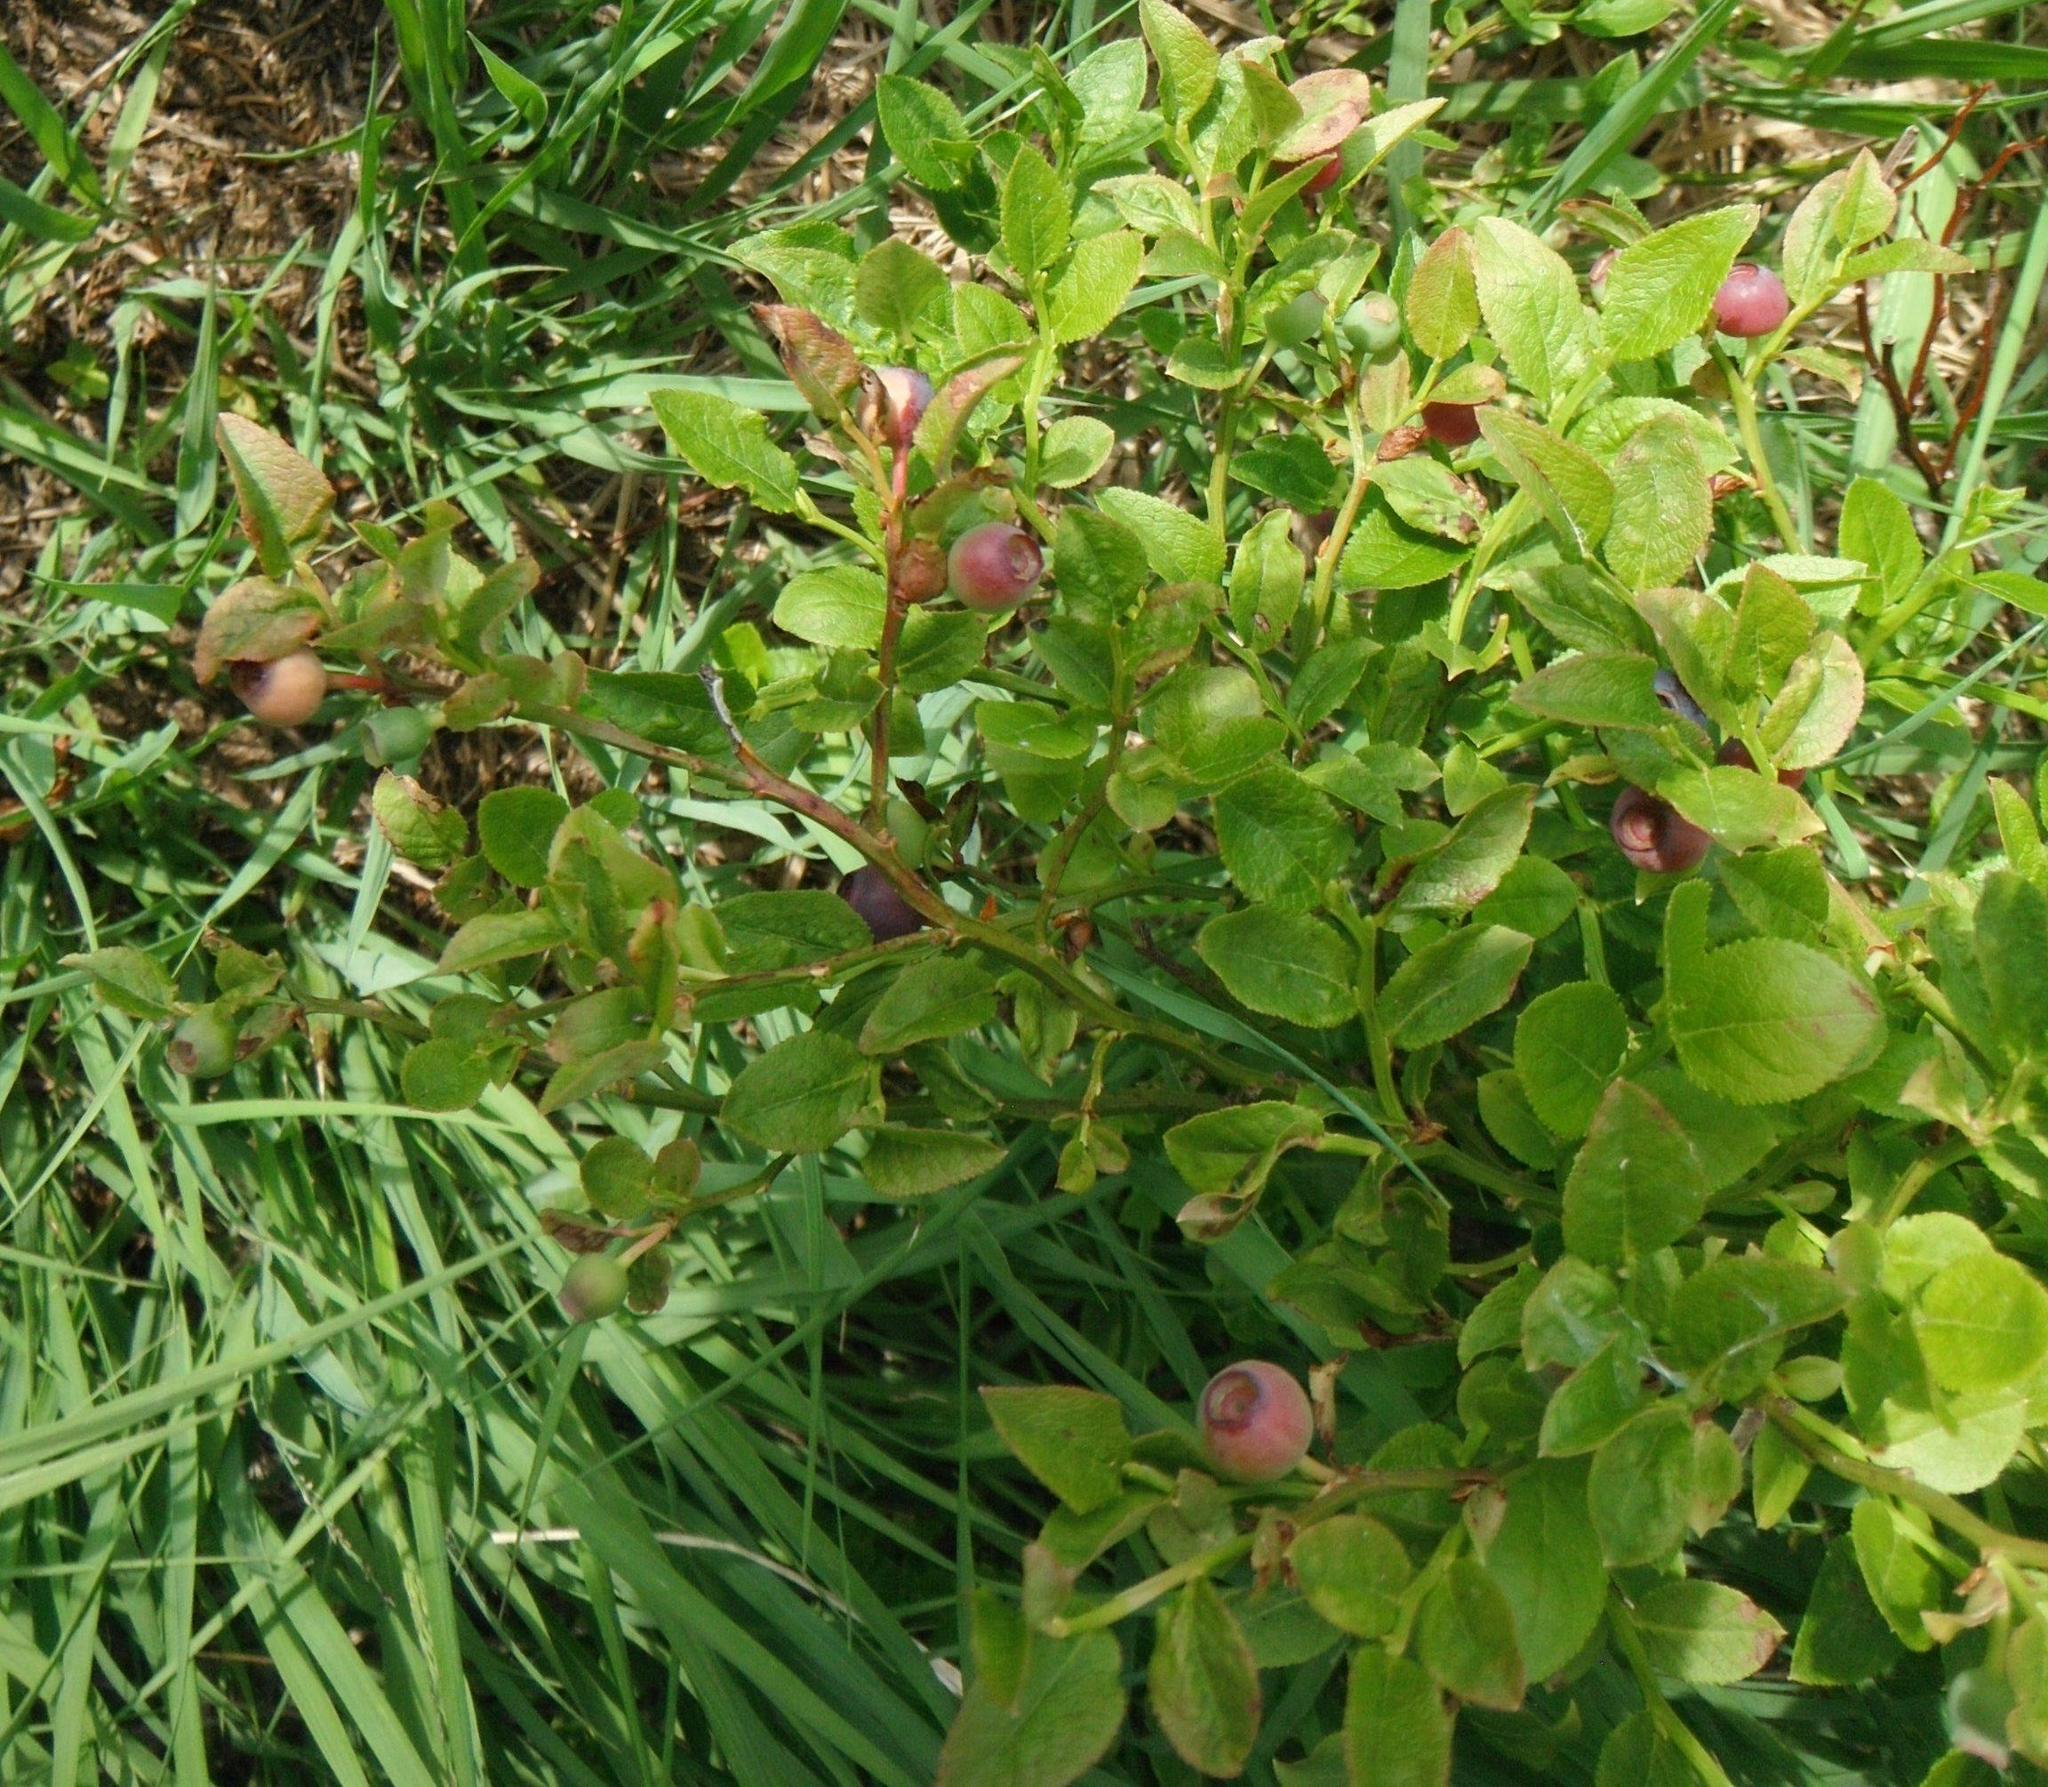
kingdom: Plantae
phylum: Tracheophyta
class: Magnoliopsida
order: Ericales
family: Ericaceae
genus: Vaccinium
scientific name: Vaccinium myrtillus
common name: Bilberry
